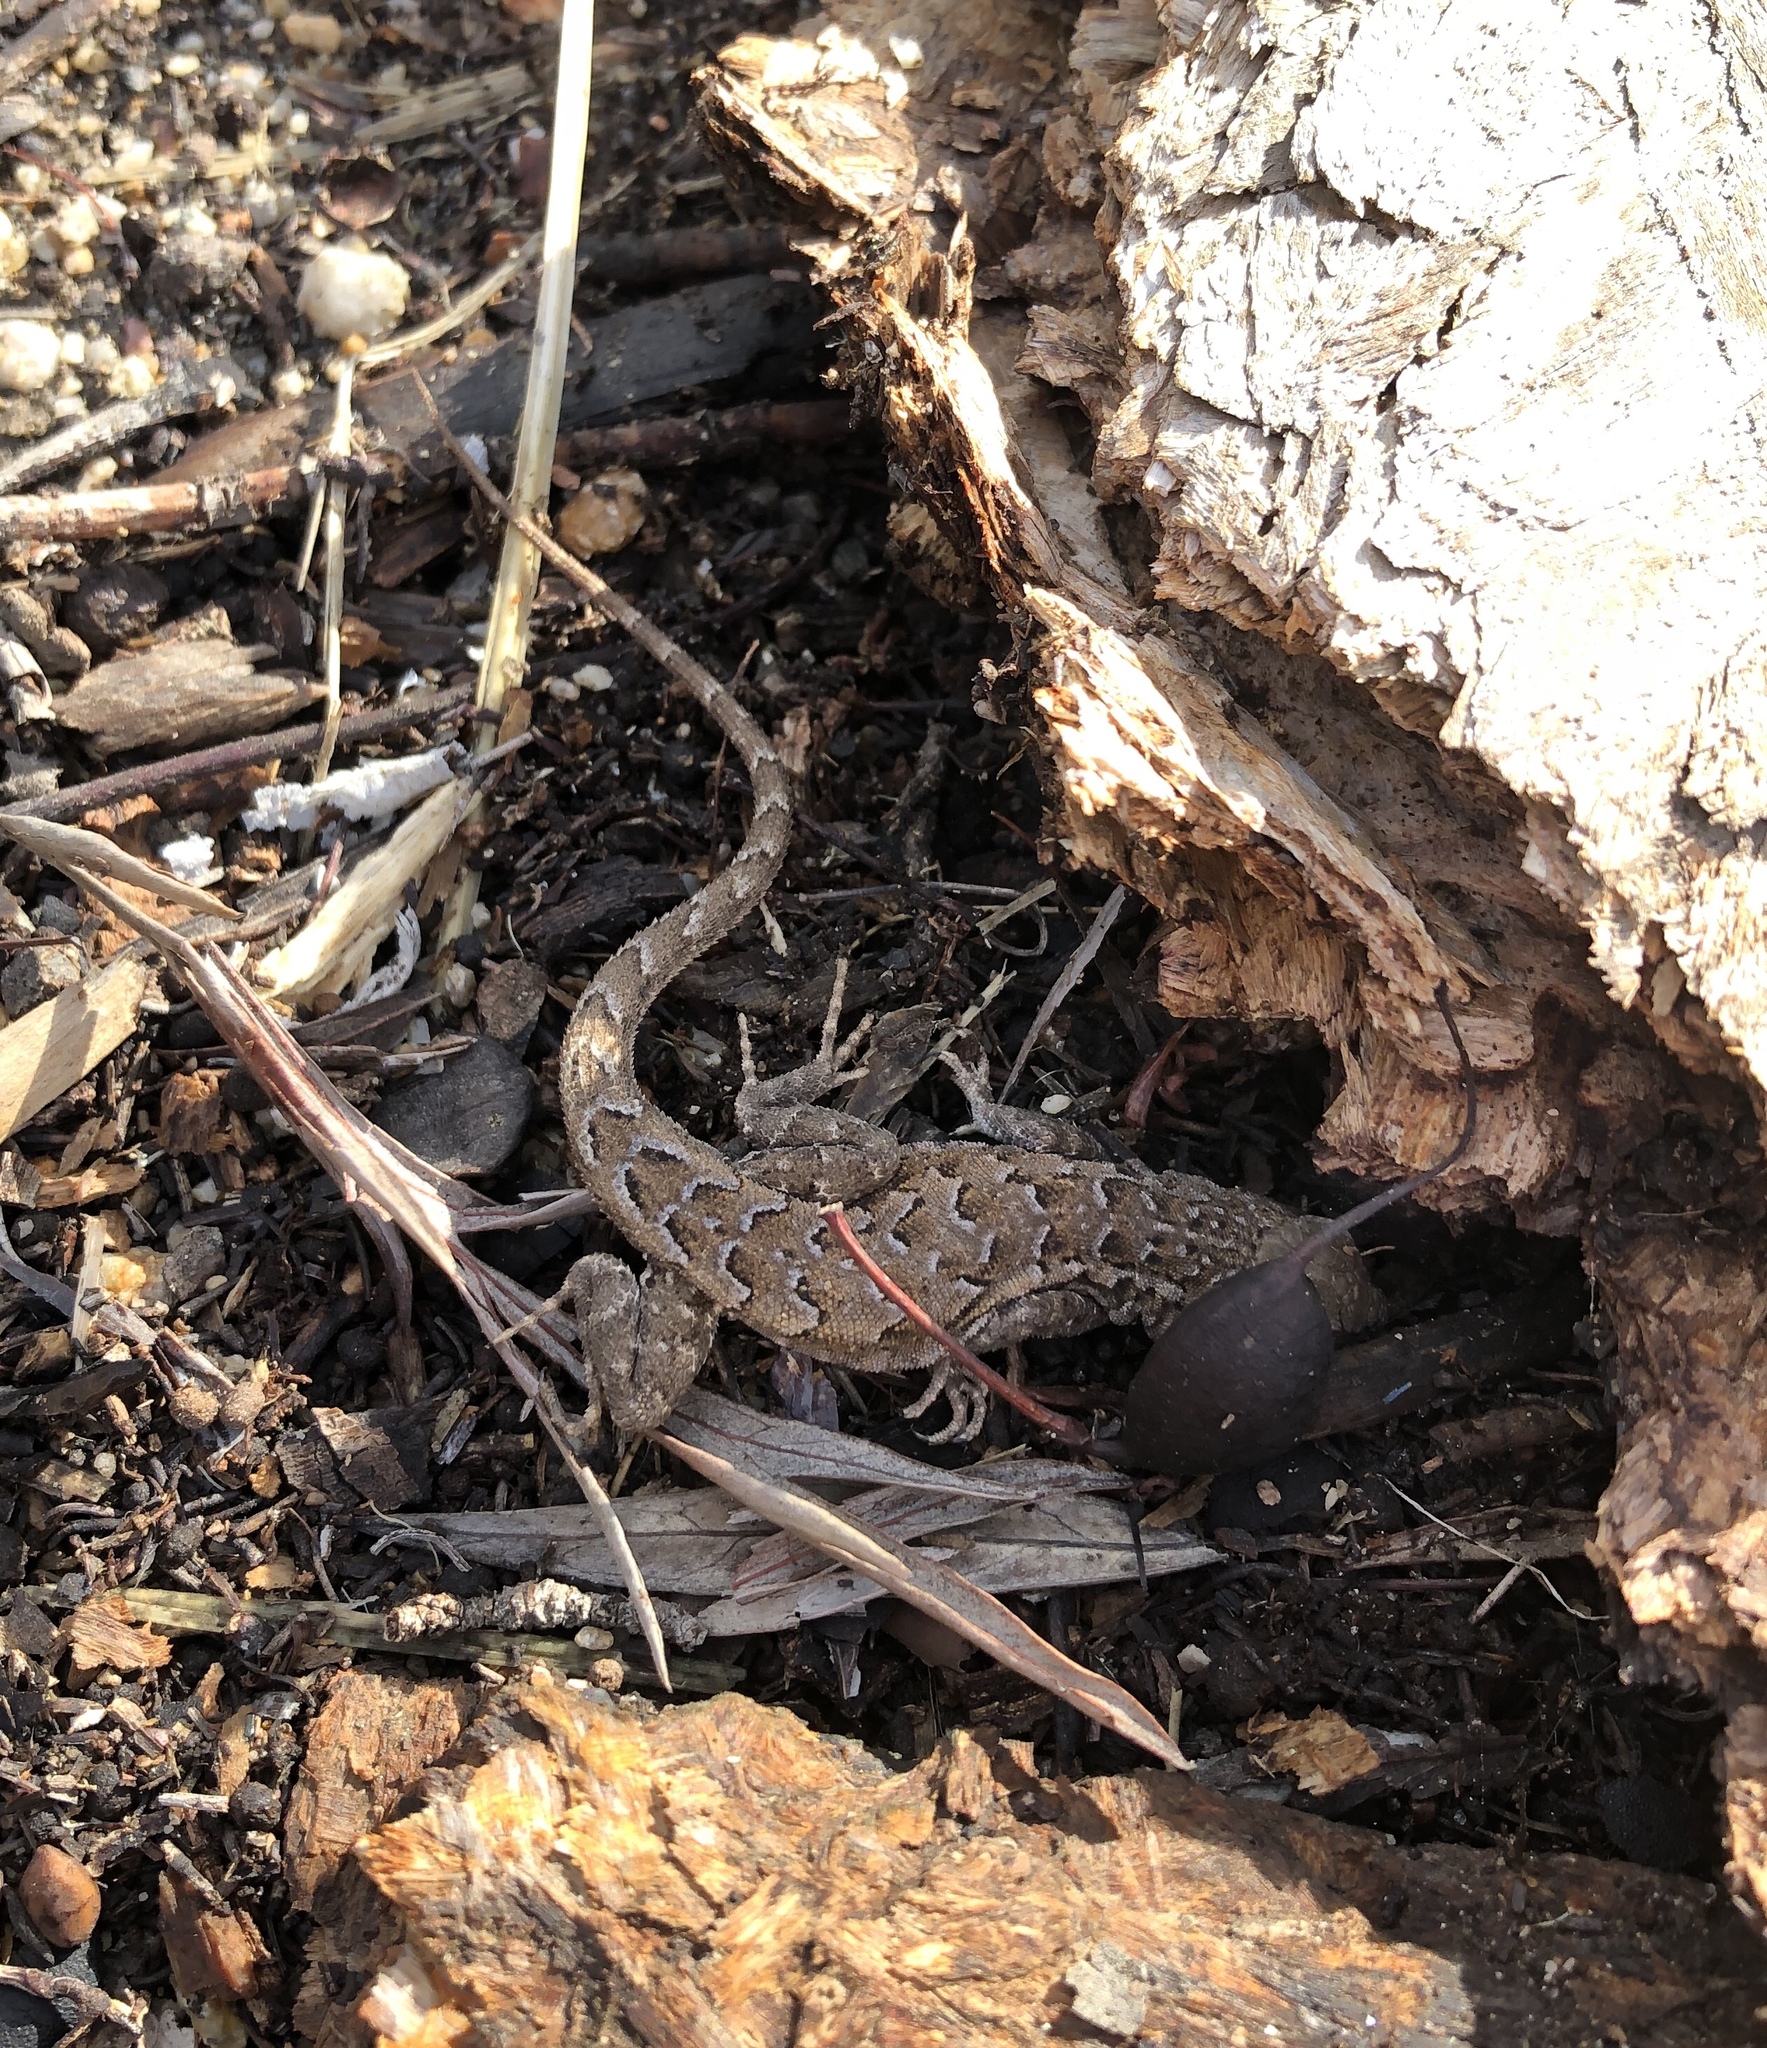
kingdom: Animalia
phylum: Chordata
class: Squamata
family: Phrynosomatidae
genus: Uta
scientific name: Uta stansburiana
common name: Side-blotched lizard
